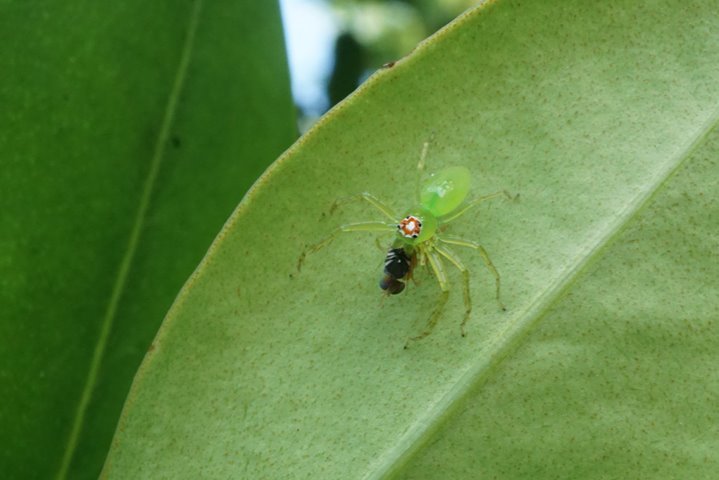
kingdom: Animalia
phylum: Arthropoda
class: Arachnida
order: Araneae
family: Salticidae
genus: Lyssomanes
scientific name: Lyssomanes viridis
